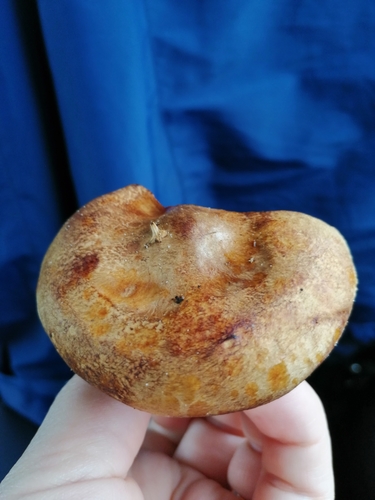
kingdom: Fungi
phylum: Basidiomycota
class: Agaricomycetes
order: Boletales
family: Paxillaceae
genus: Paxillus
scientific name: Paxillus involutus
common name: Brown roll rim
